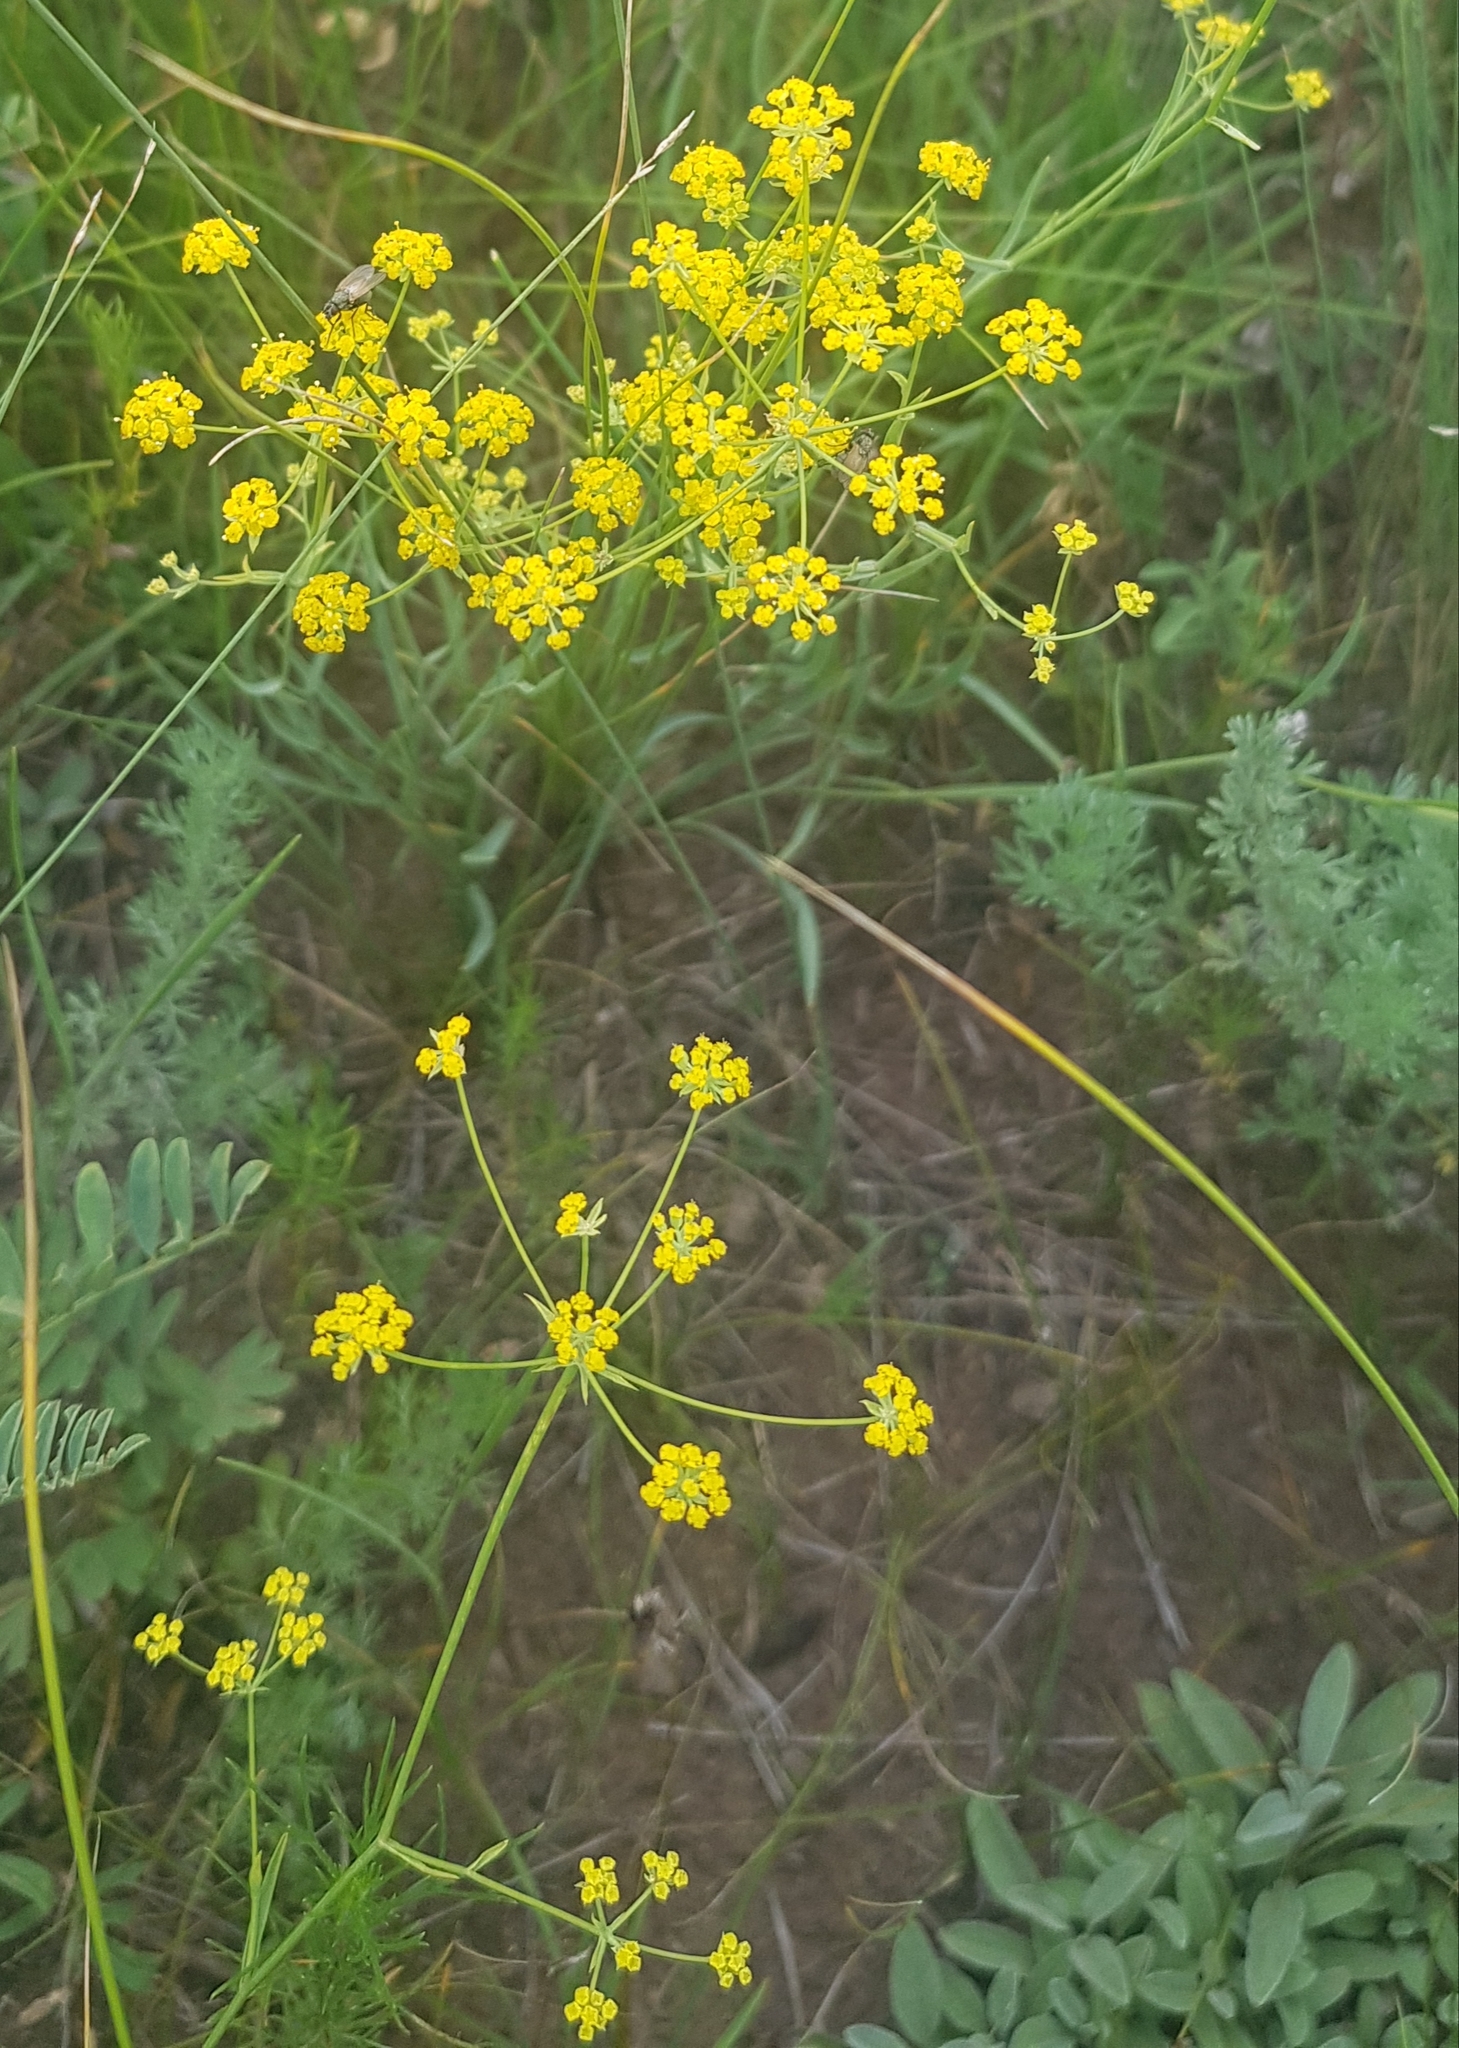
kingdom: Plantae
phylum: Tracheophyta
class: Magnoliopsida
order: Apiales
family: Apiaceae
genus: Bupleurum
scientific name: Bupleurum bicaule
